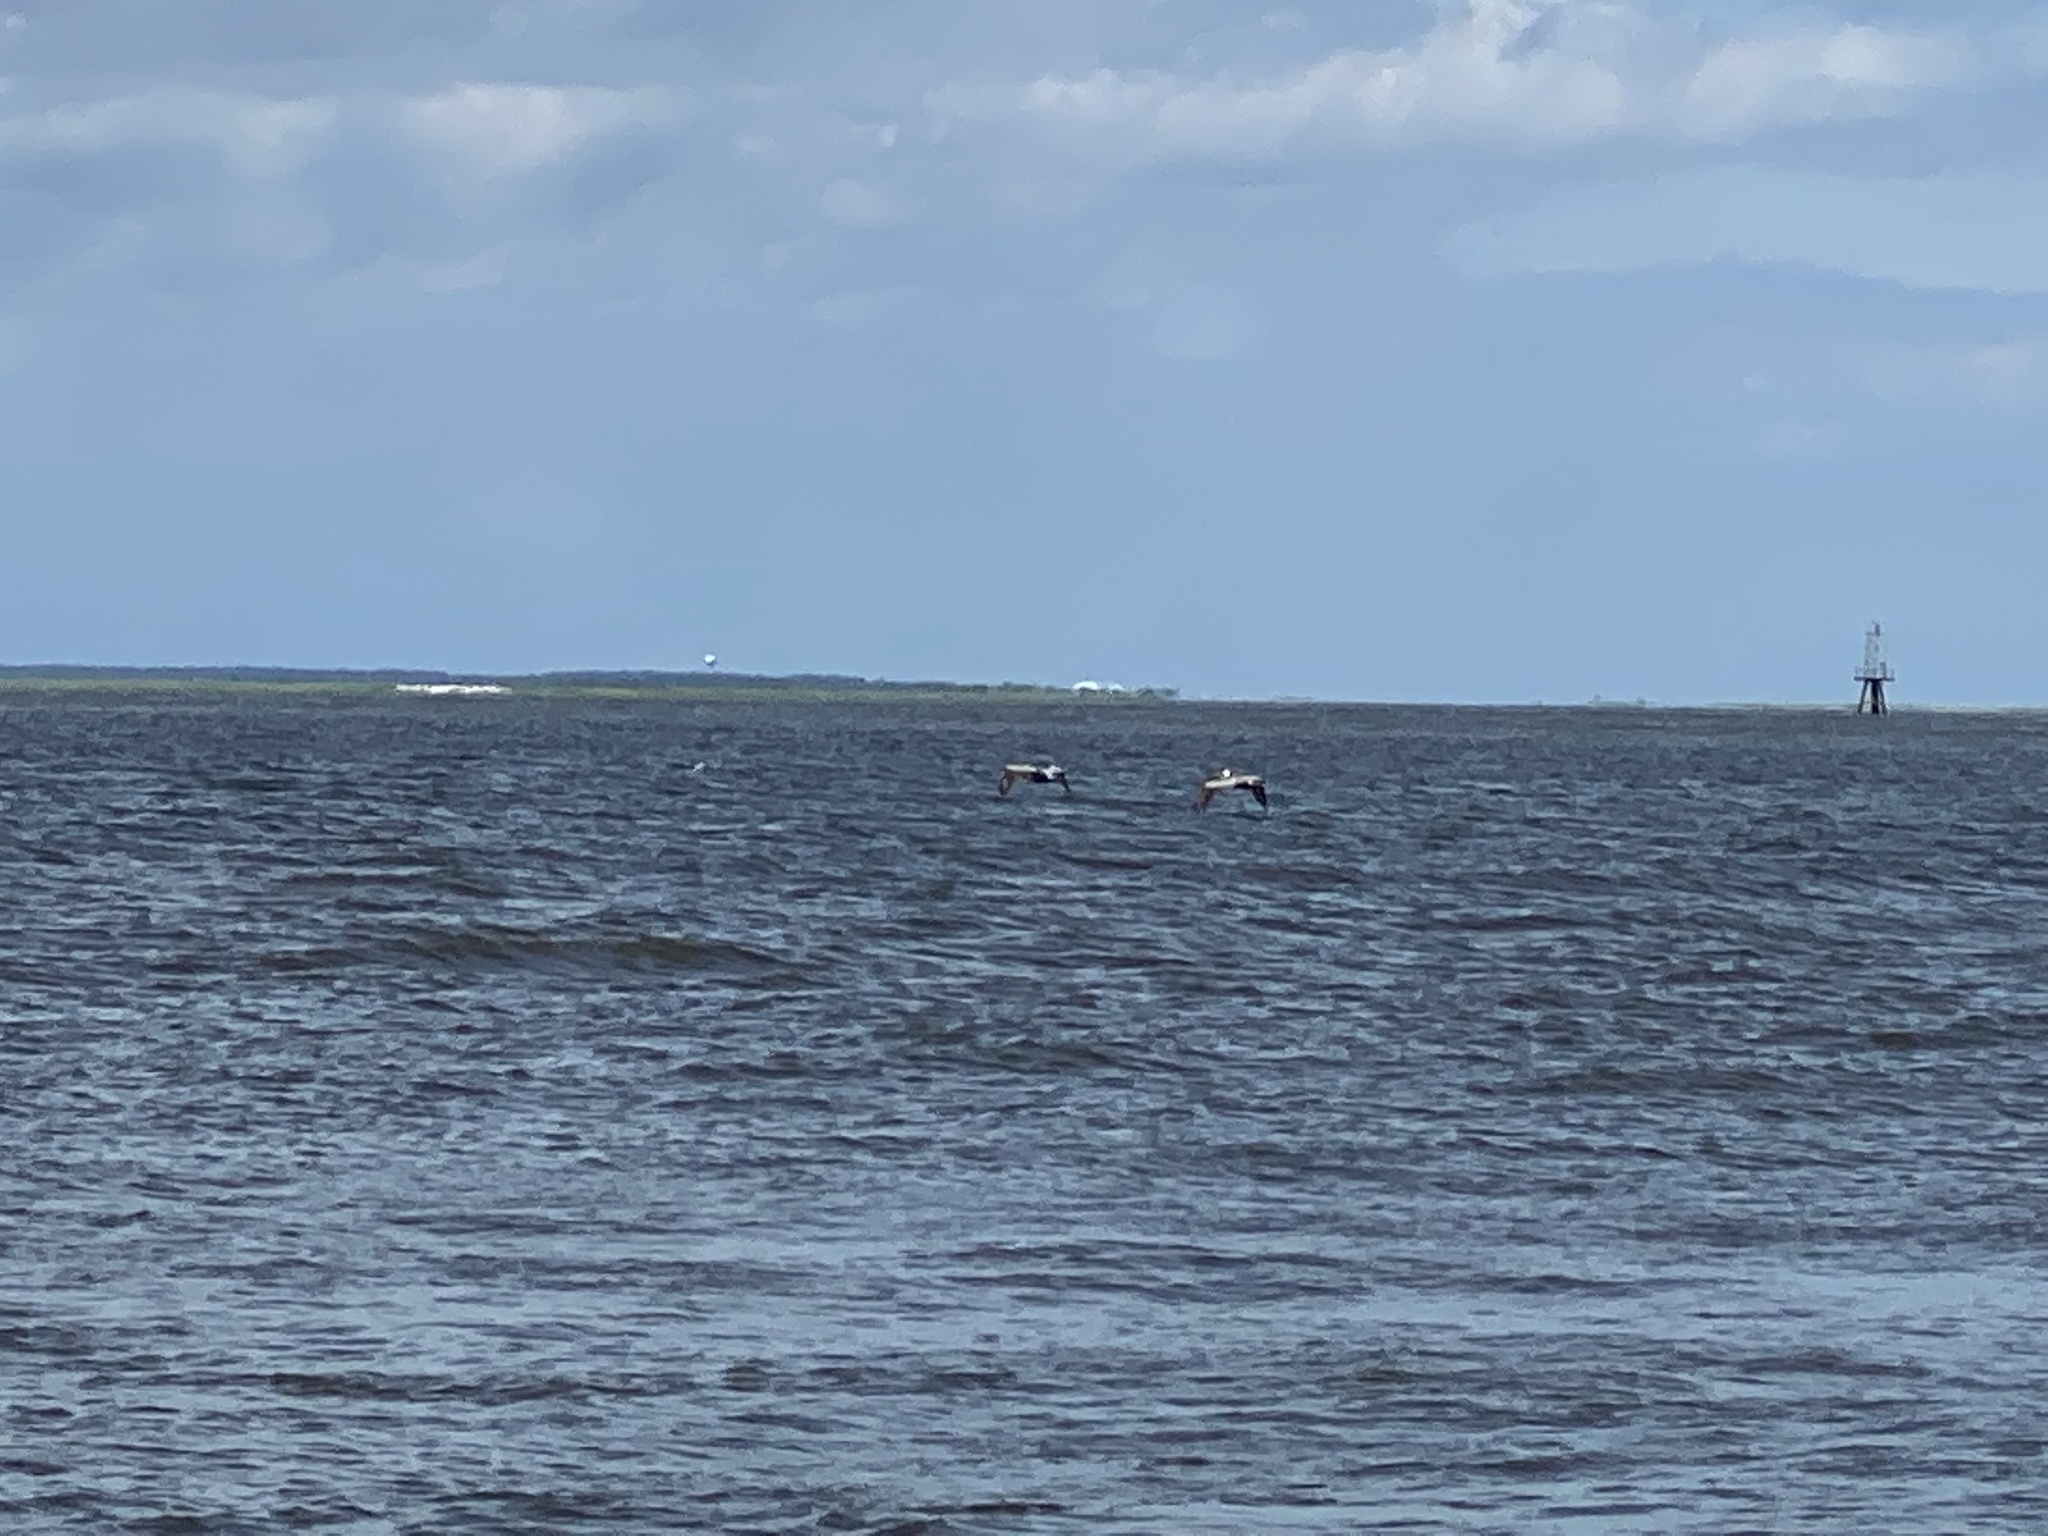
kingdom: Animalia
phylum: Chordata
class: Aves
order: Pelecaniformes
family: Pelecanidae
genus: Pelecanus
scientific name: Pelecanus occidentalis
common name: Brown pelican
